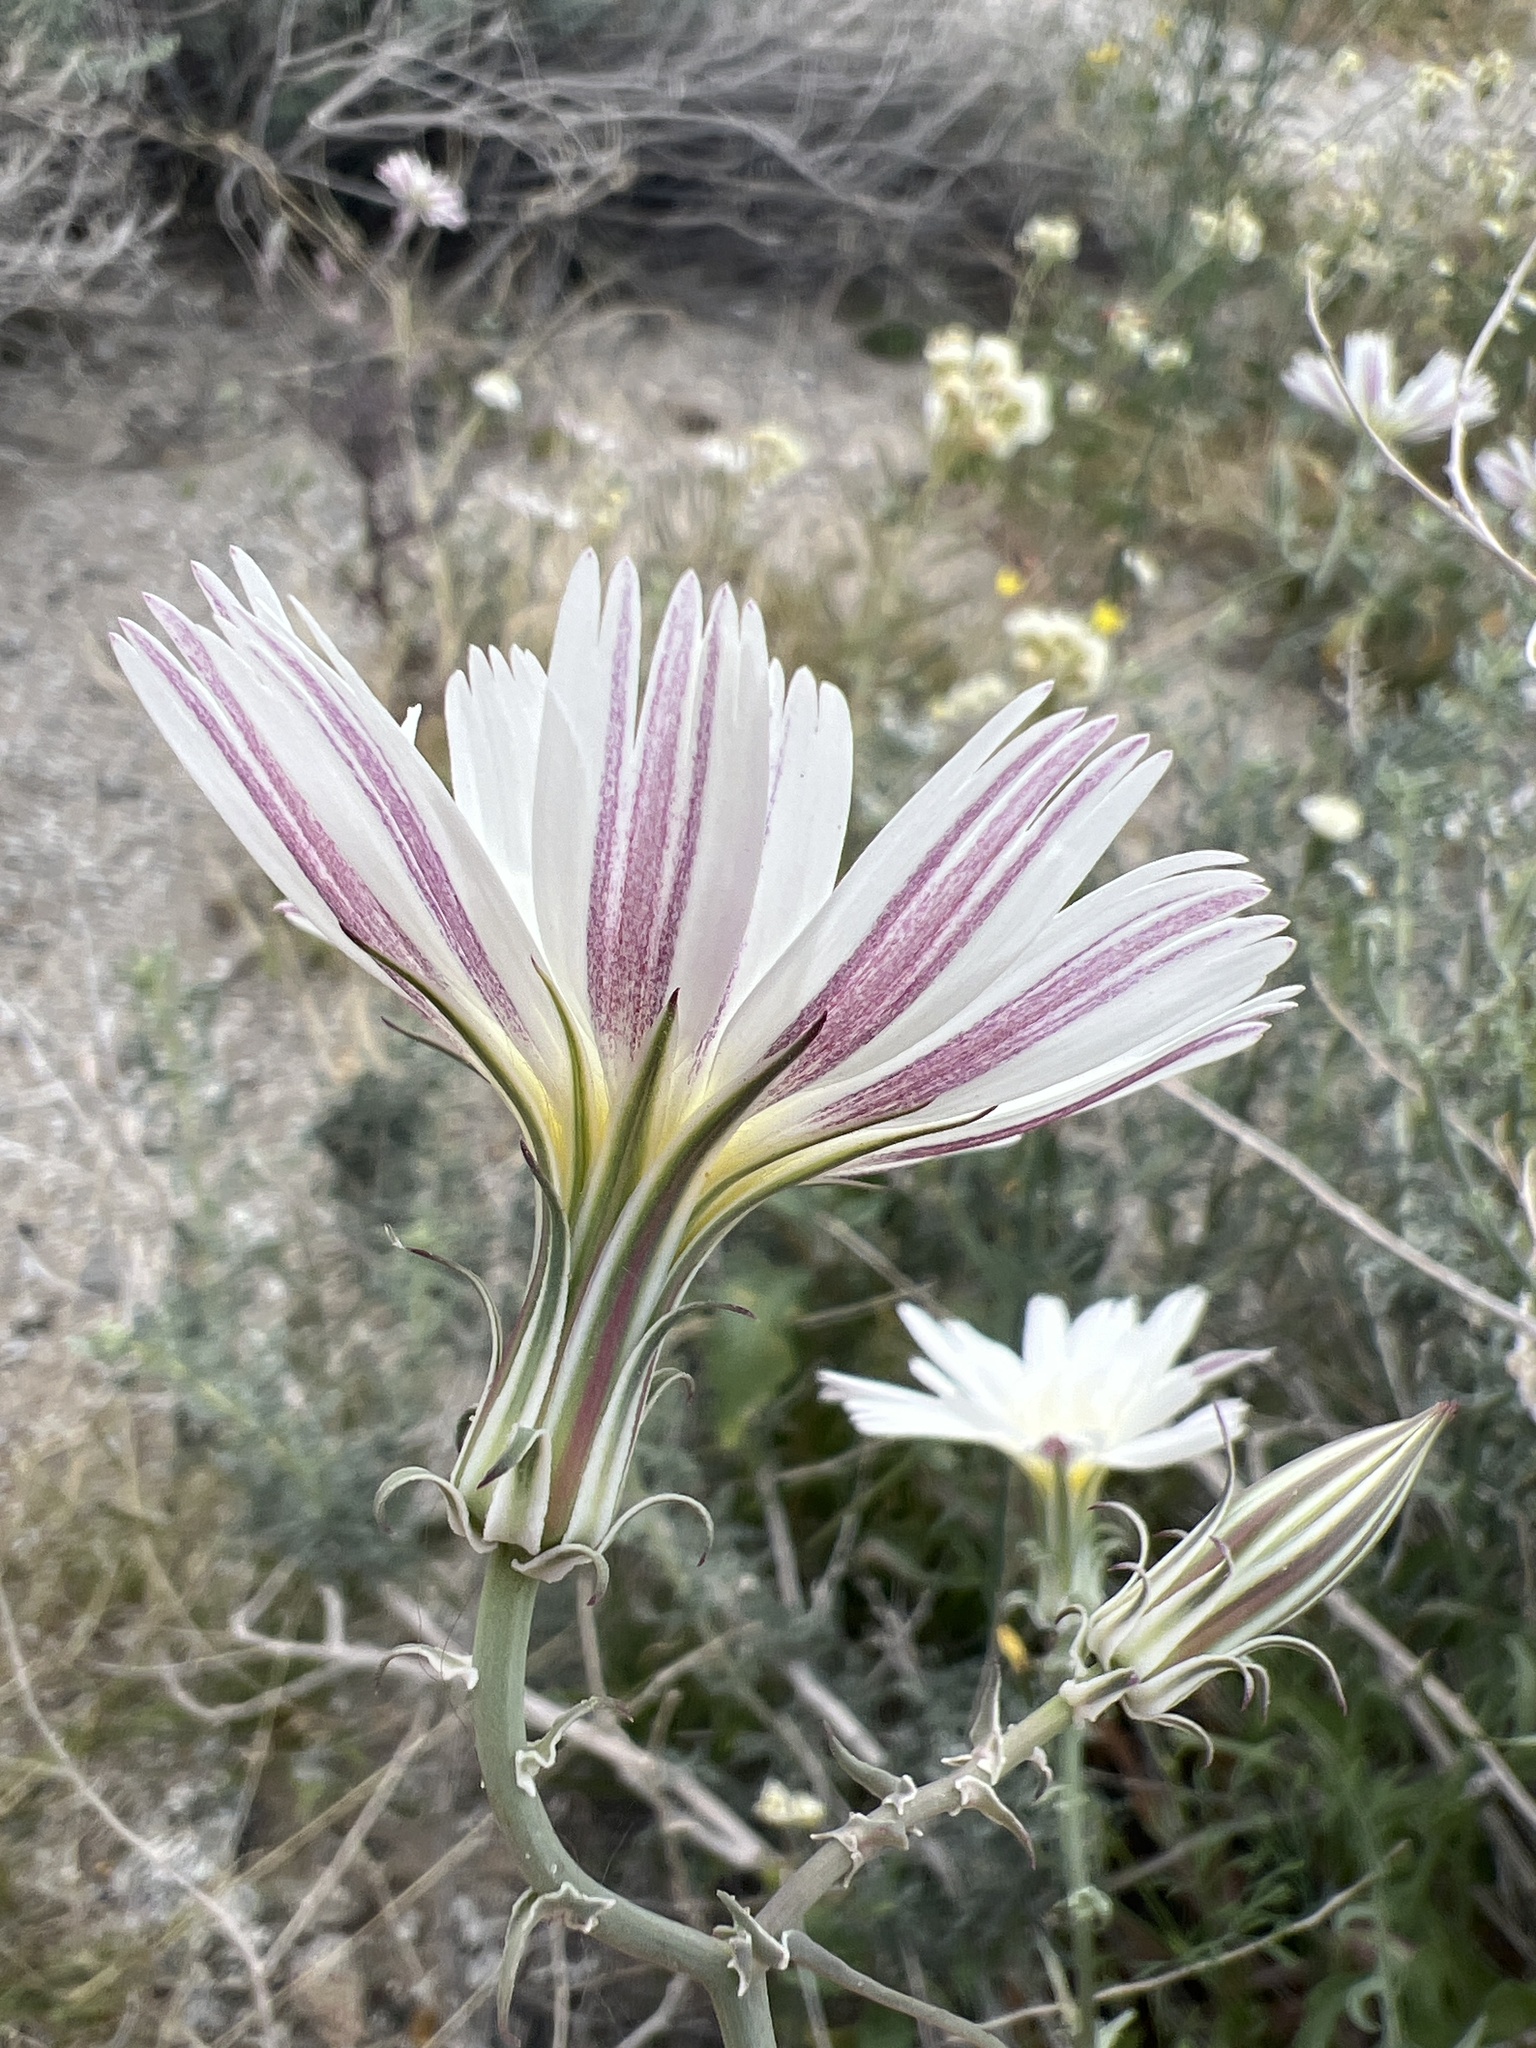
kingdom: Plantae
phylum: Tracheophyta
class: Magnoliopsida
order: Asterales
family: Asteraceae
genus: Rafinesquia
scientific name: Rafinesquia neomexicana
